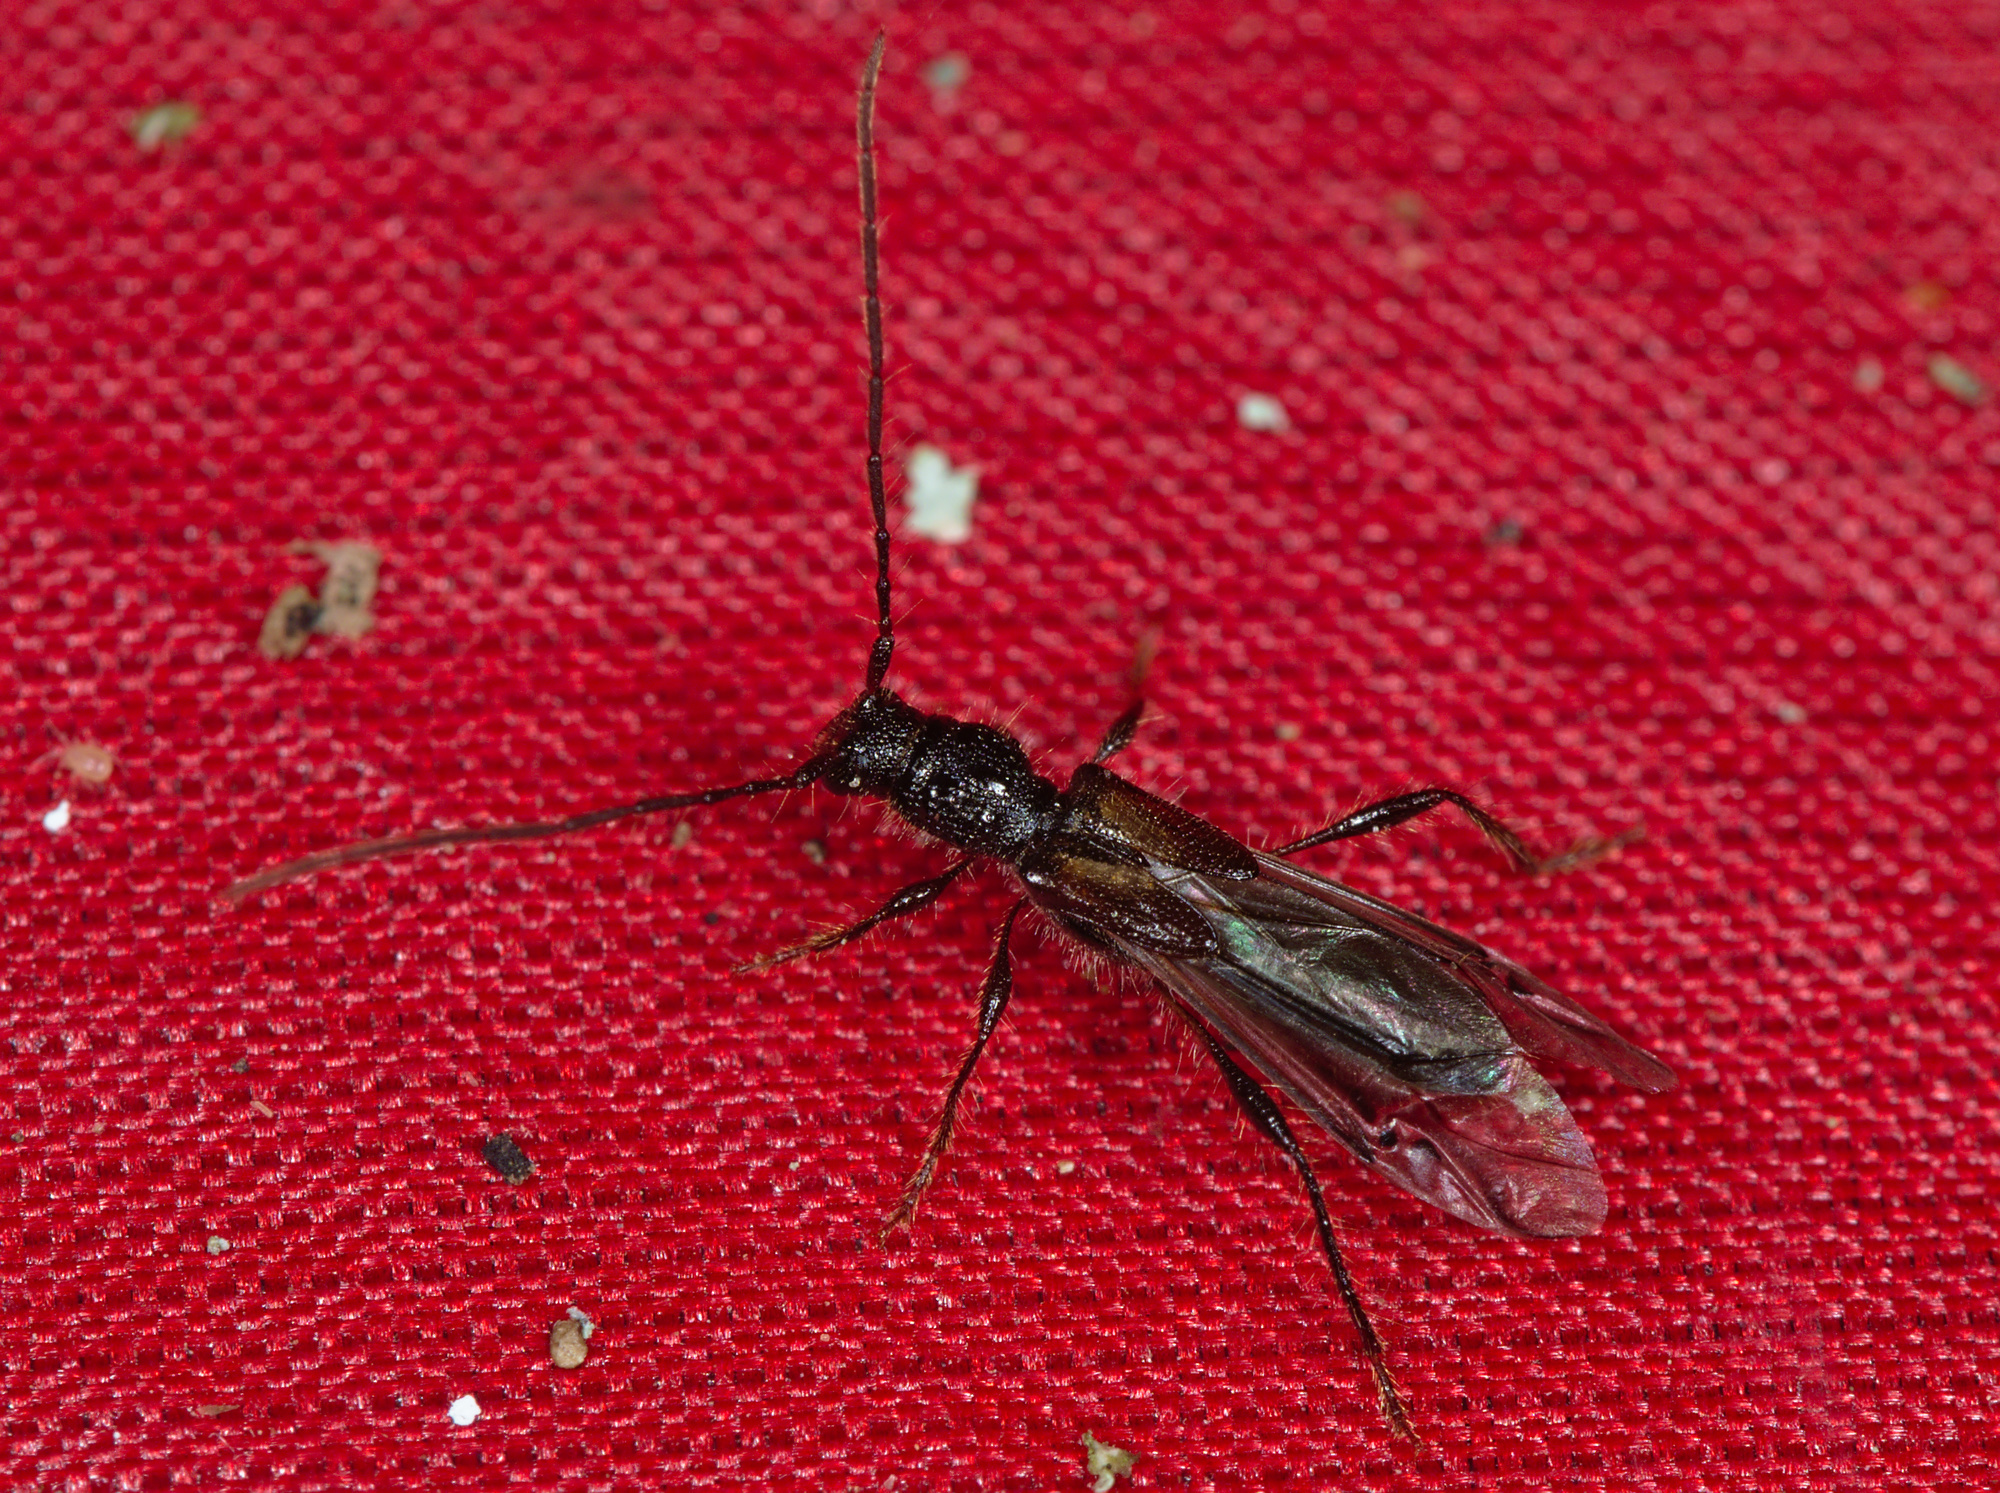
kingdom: Animalia
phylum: Arthropoda
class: Insecta
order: Coleoptera
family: Cerambycidae
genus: Molorchus
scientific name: Molorchus umbellatarum
